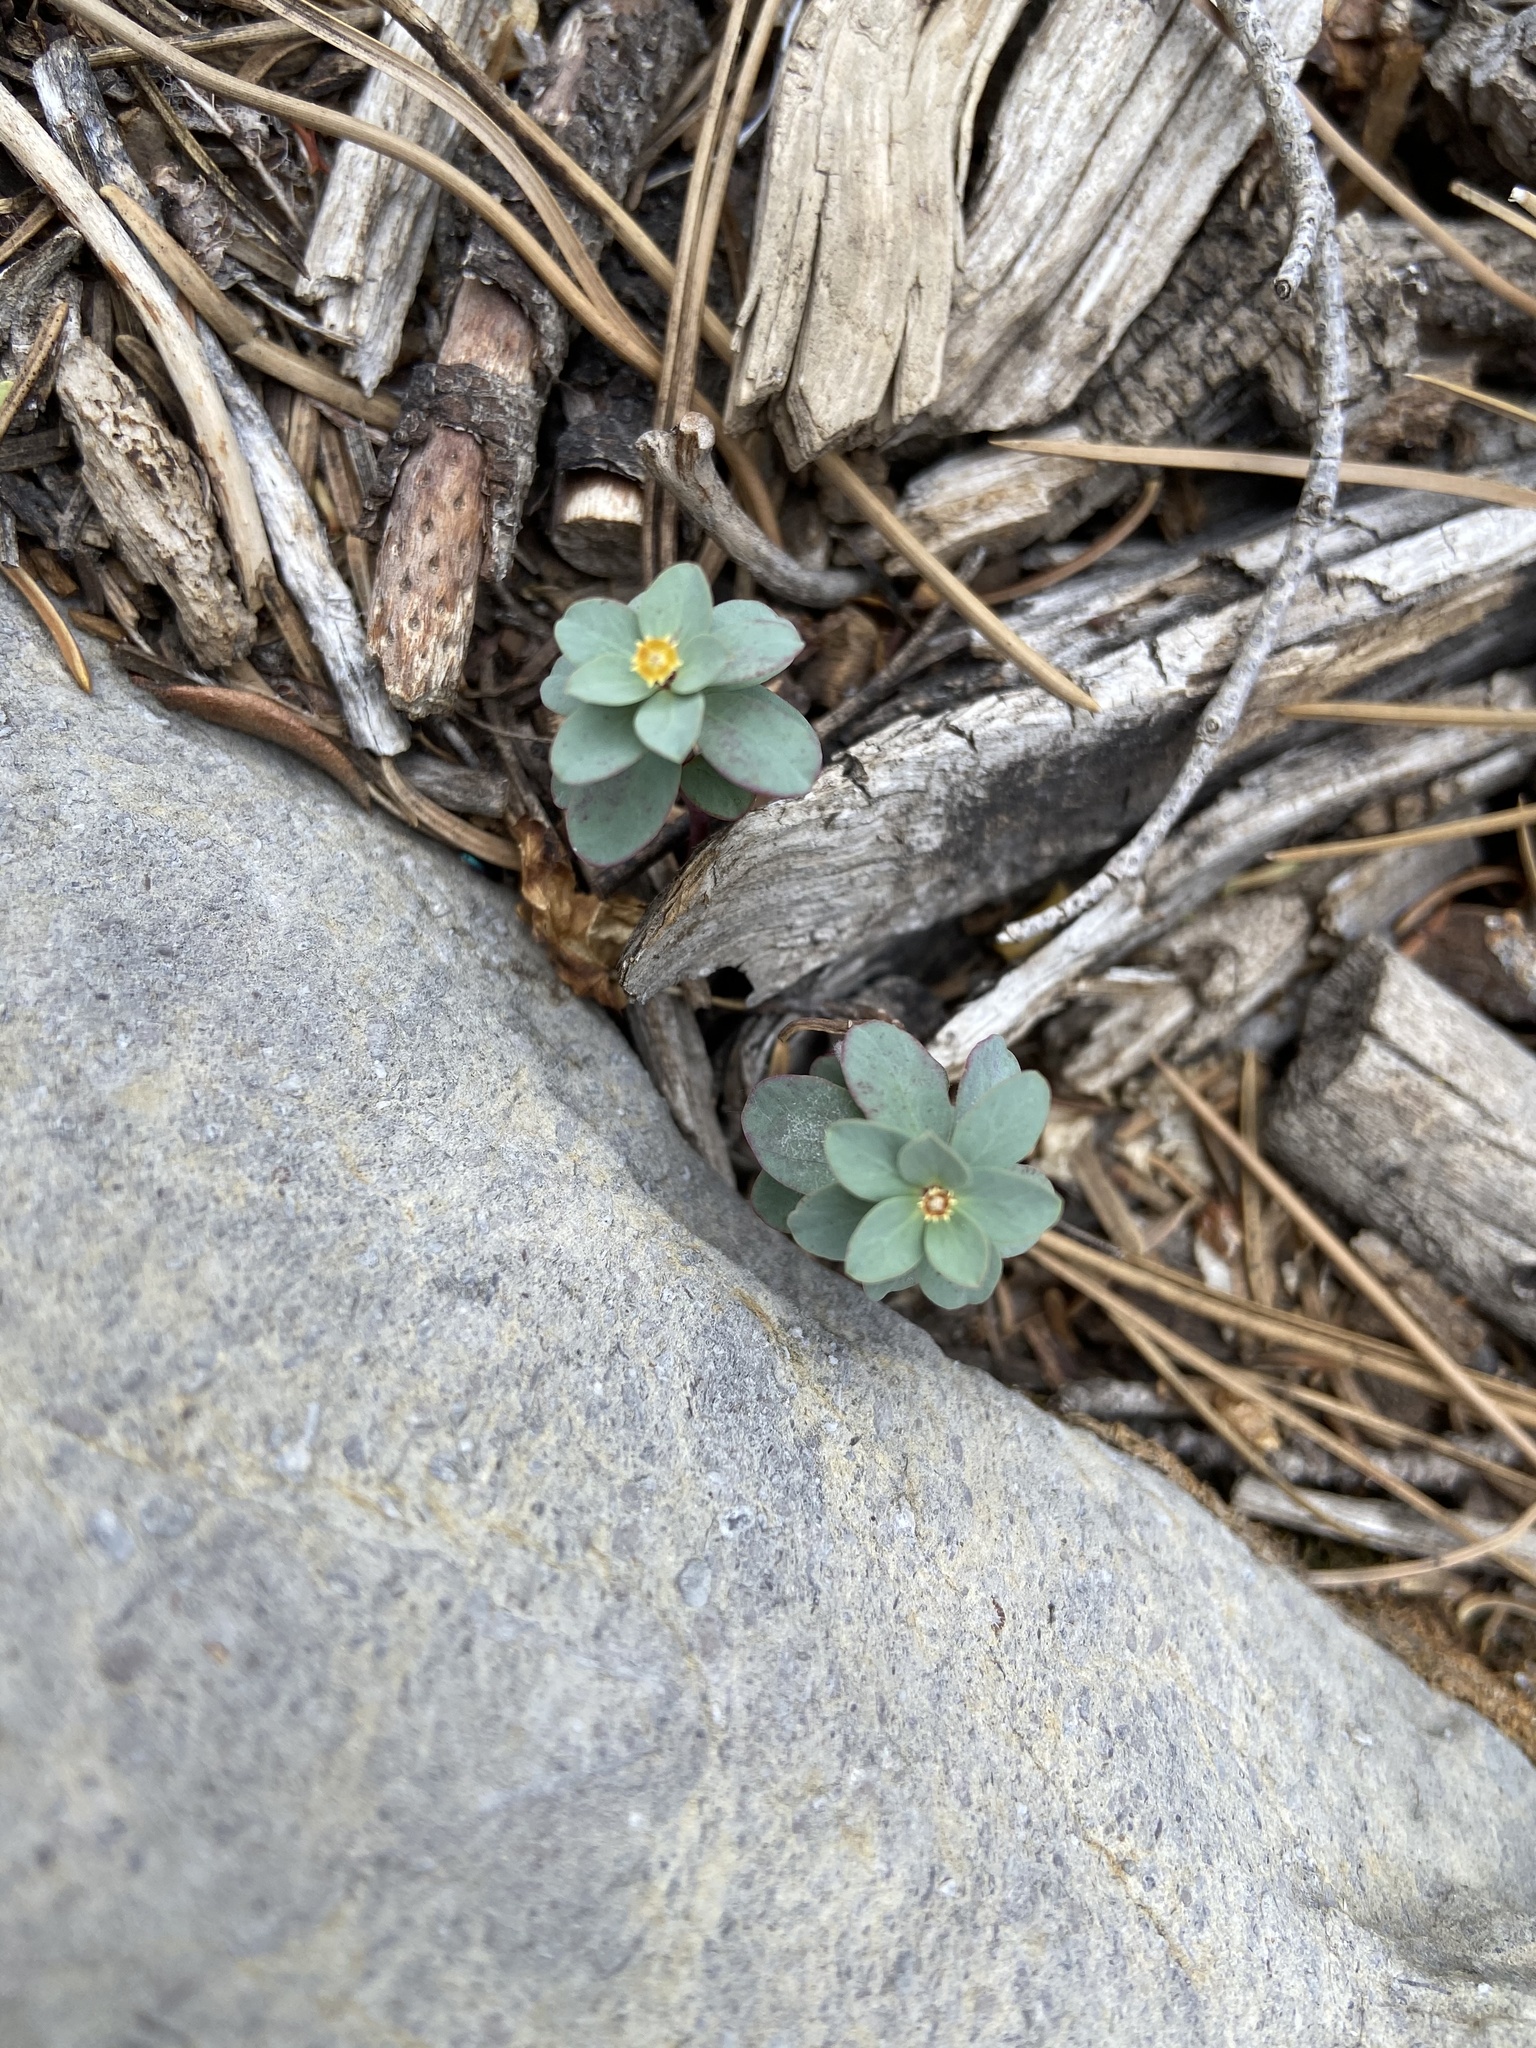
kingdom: Plantae
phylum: Tracheophyta
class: Magnoliopsida
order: Malpighiales
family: Euphorbiaceae
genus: Euphorbia
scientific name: Euphorbia brachycera
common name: Shorthorn spurge
